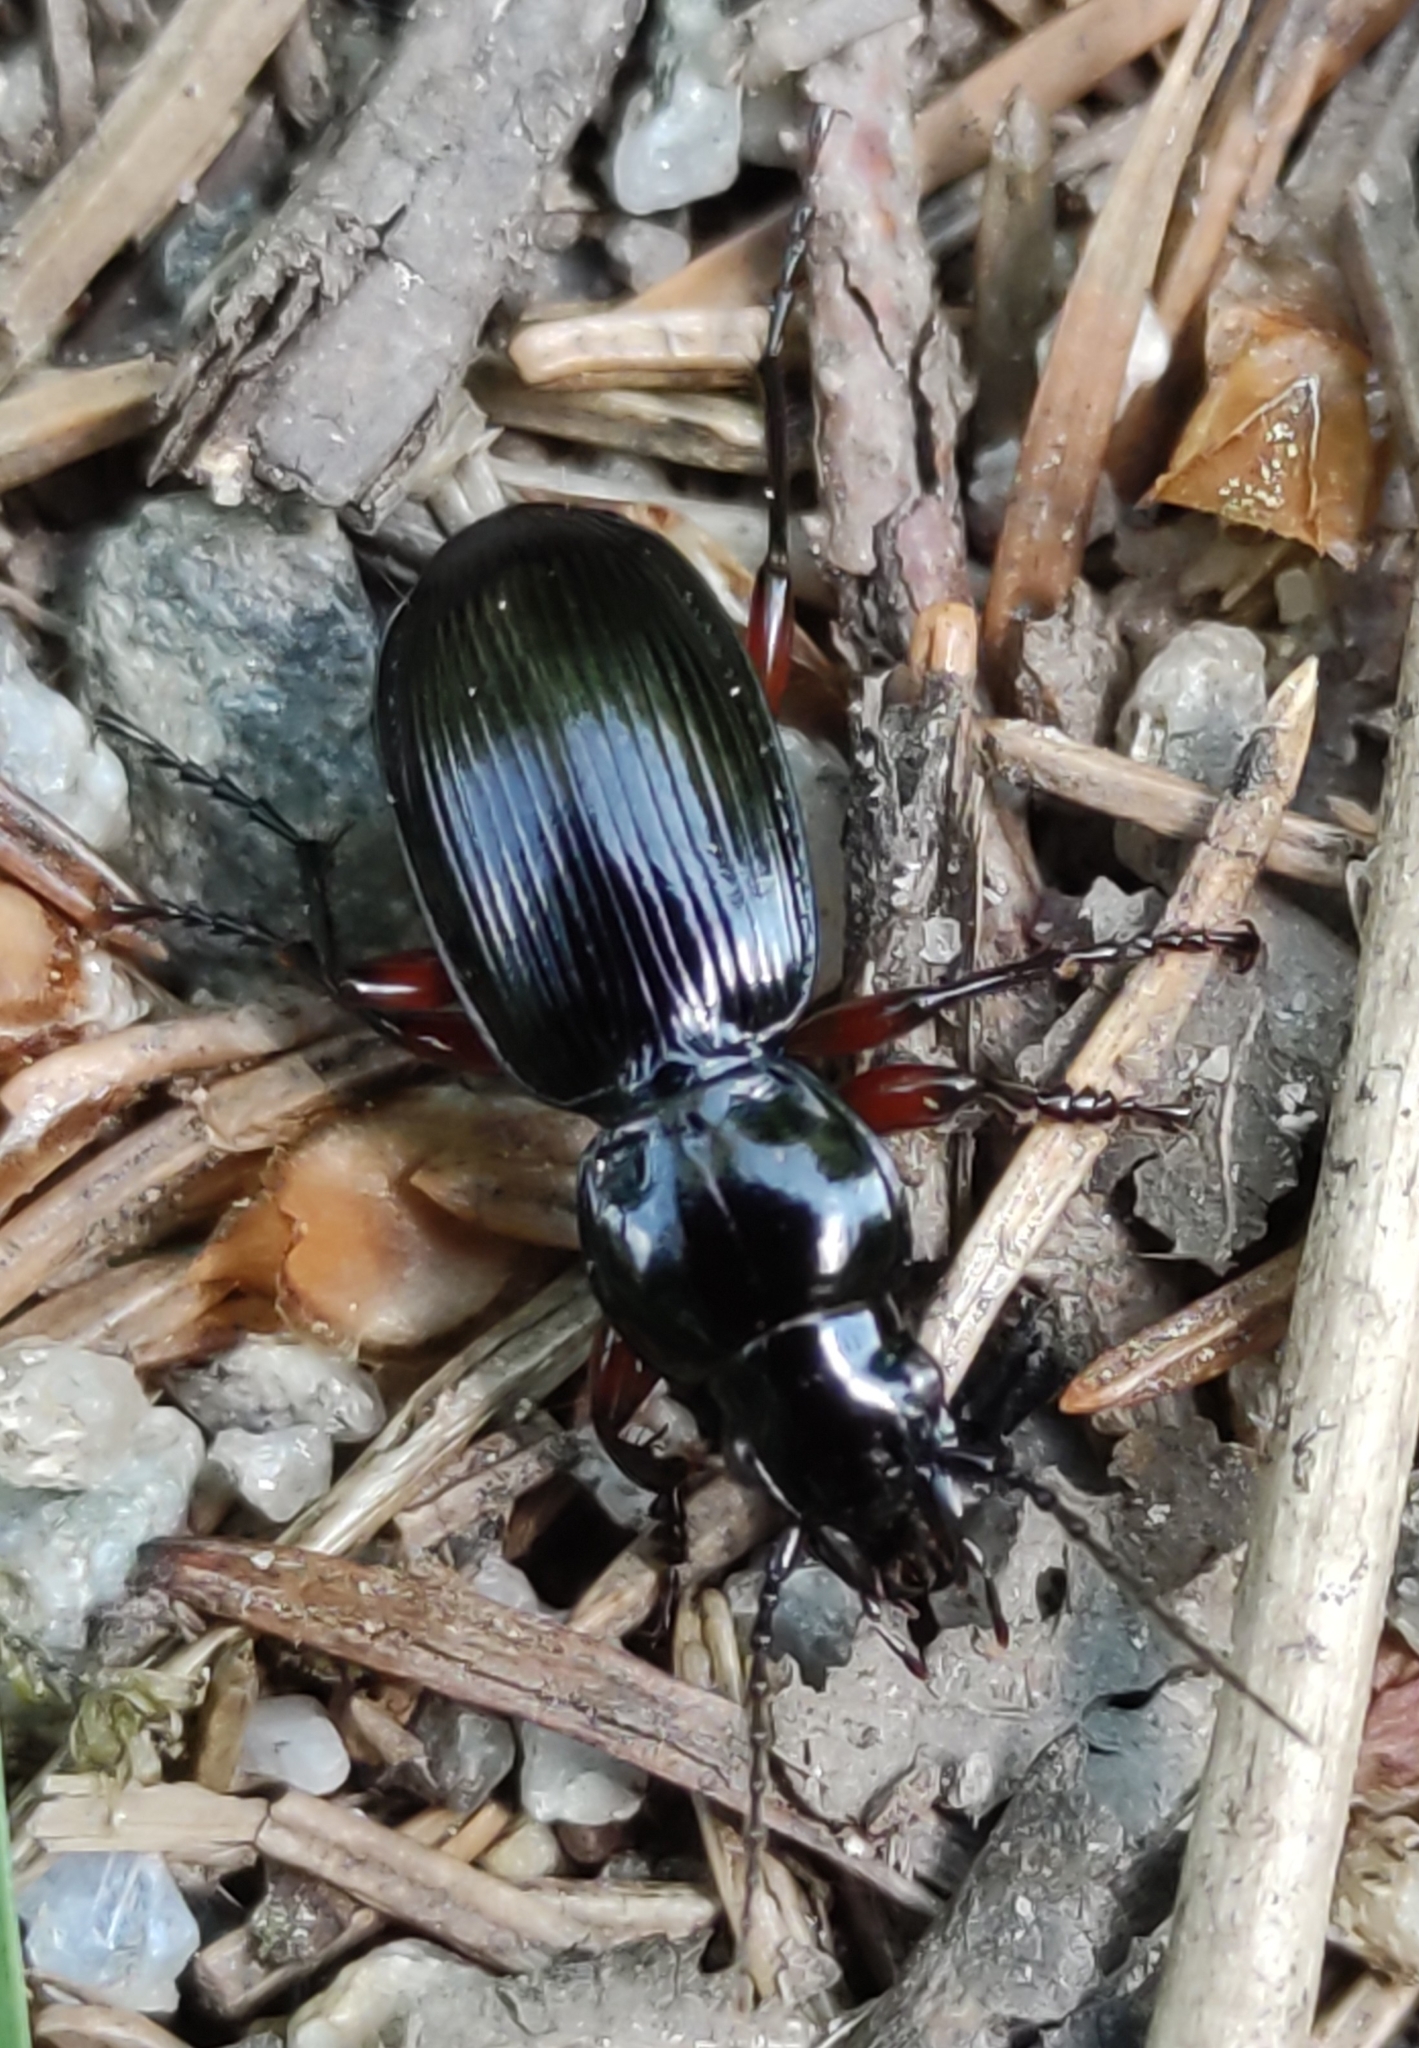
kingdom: Animalia
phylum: Arthropoda
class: Insecta
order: Coleoptera
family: Carabidae
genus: Pterostichus
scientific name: Pterostichus madidus
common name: Black clock
